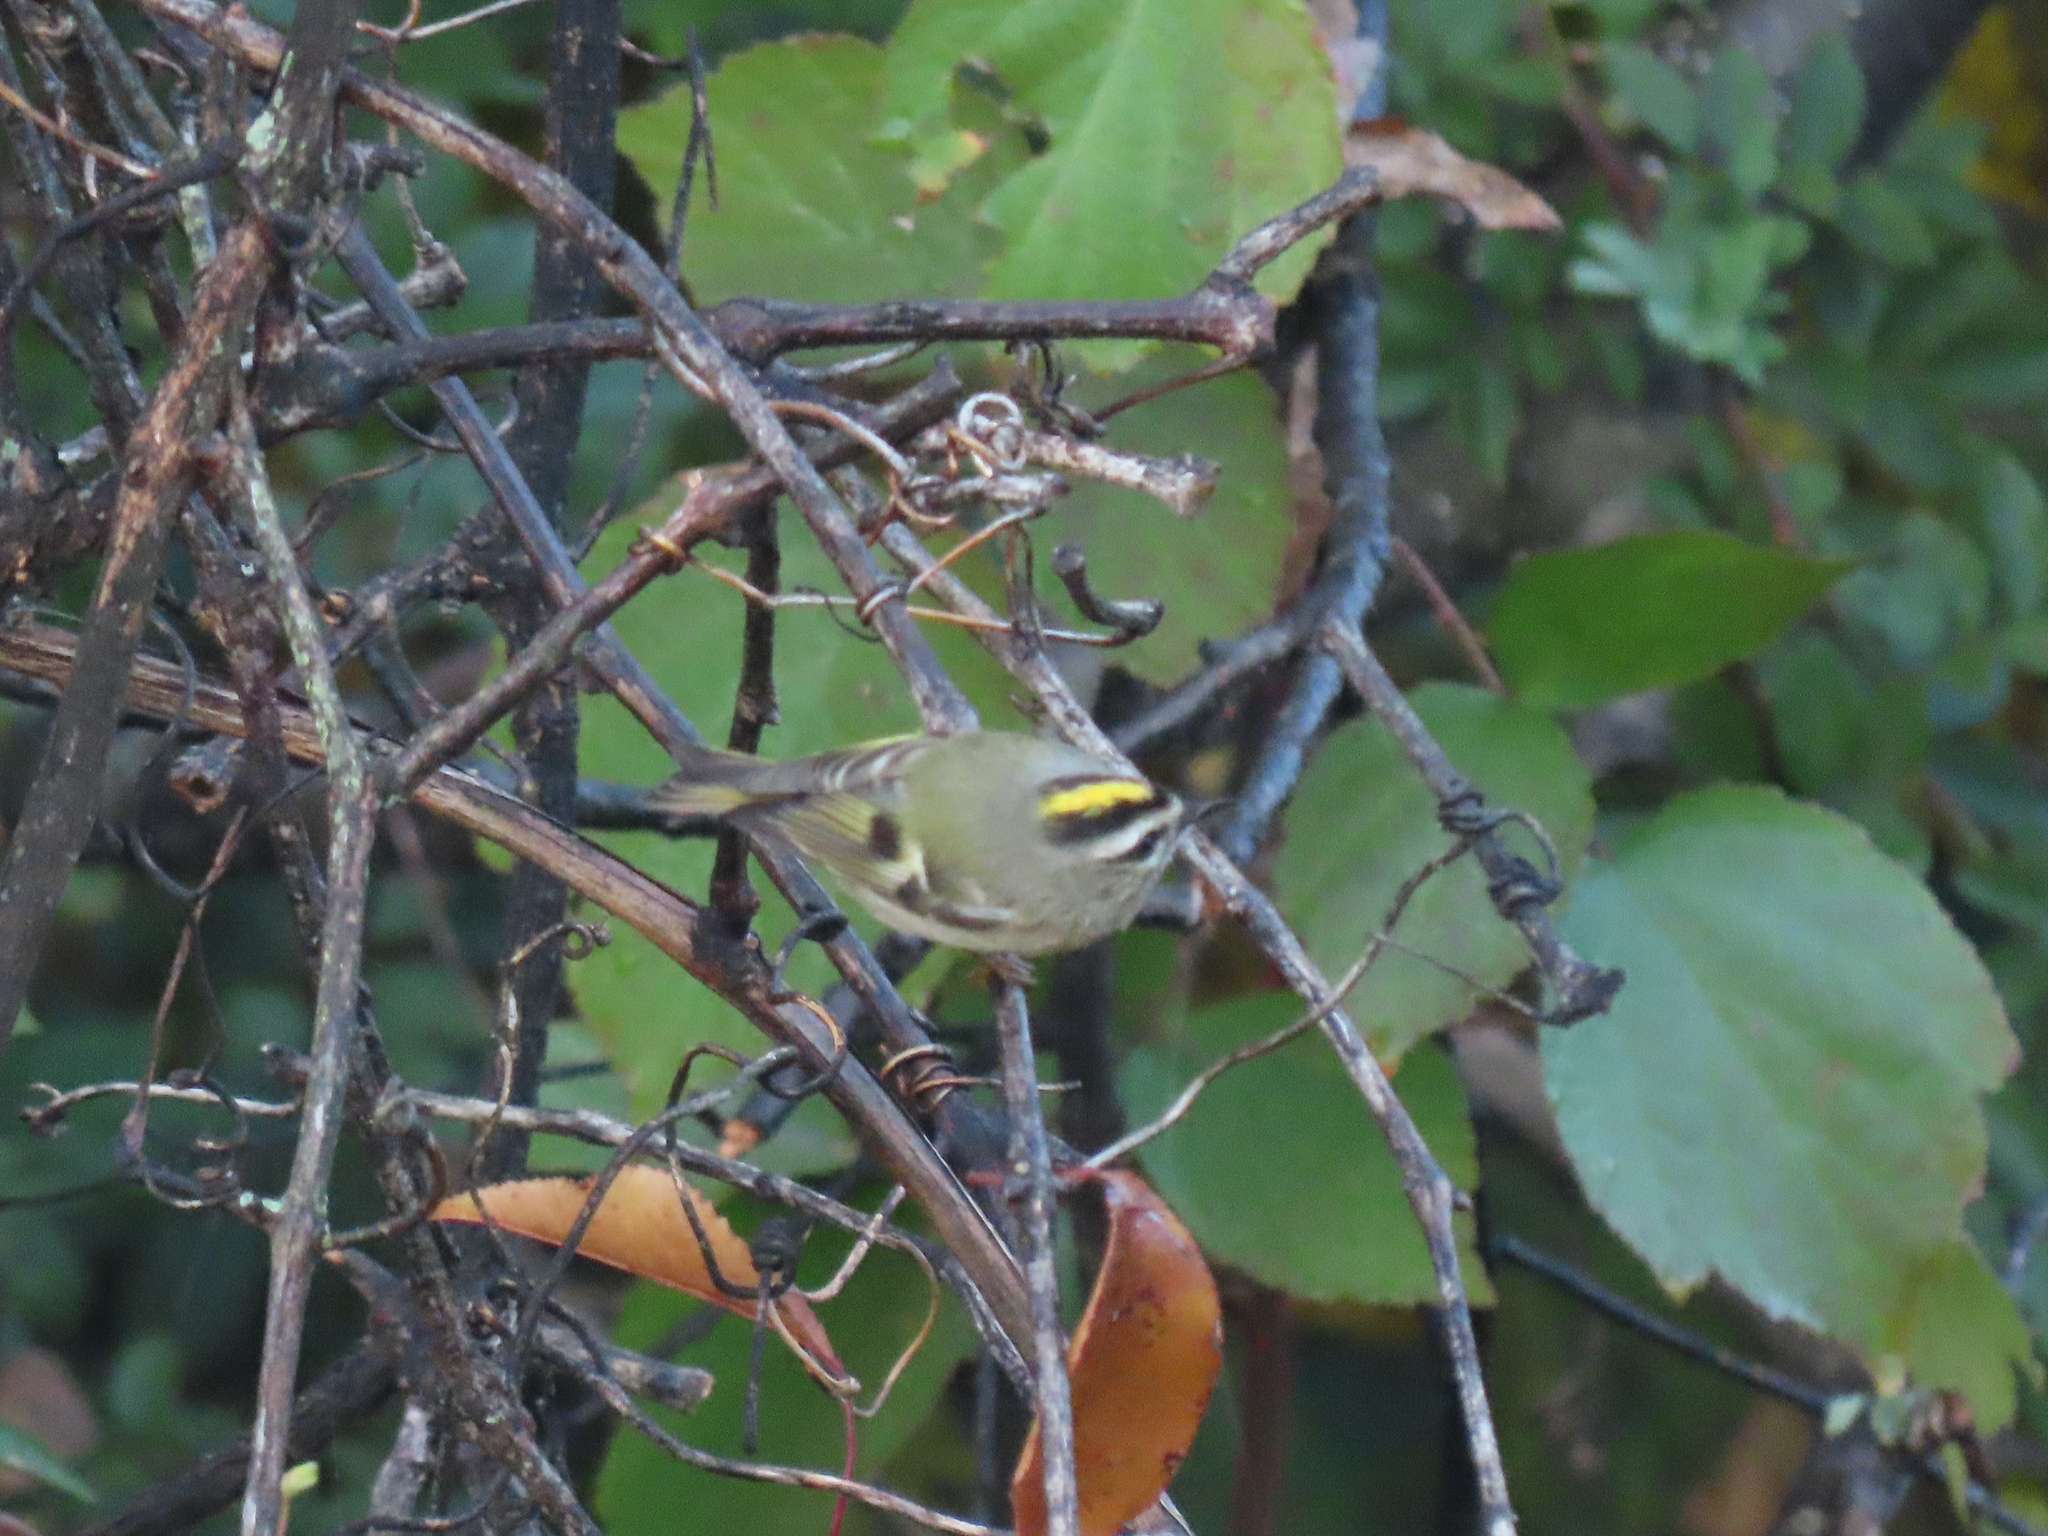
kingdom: Animalia
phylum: Chordata
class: Aves
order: Passeriformes
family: Regulidae
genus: Regulus
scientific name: Regulus satrapa
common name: Golden-crowned kinglet
